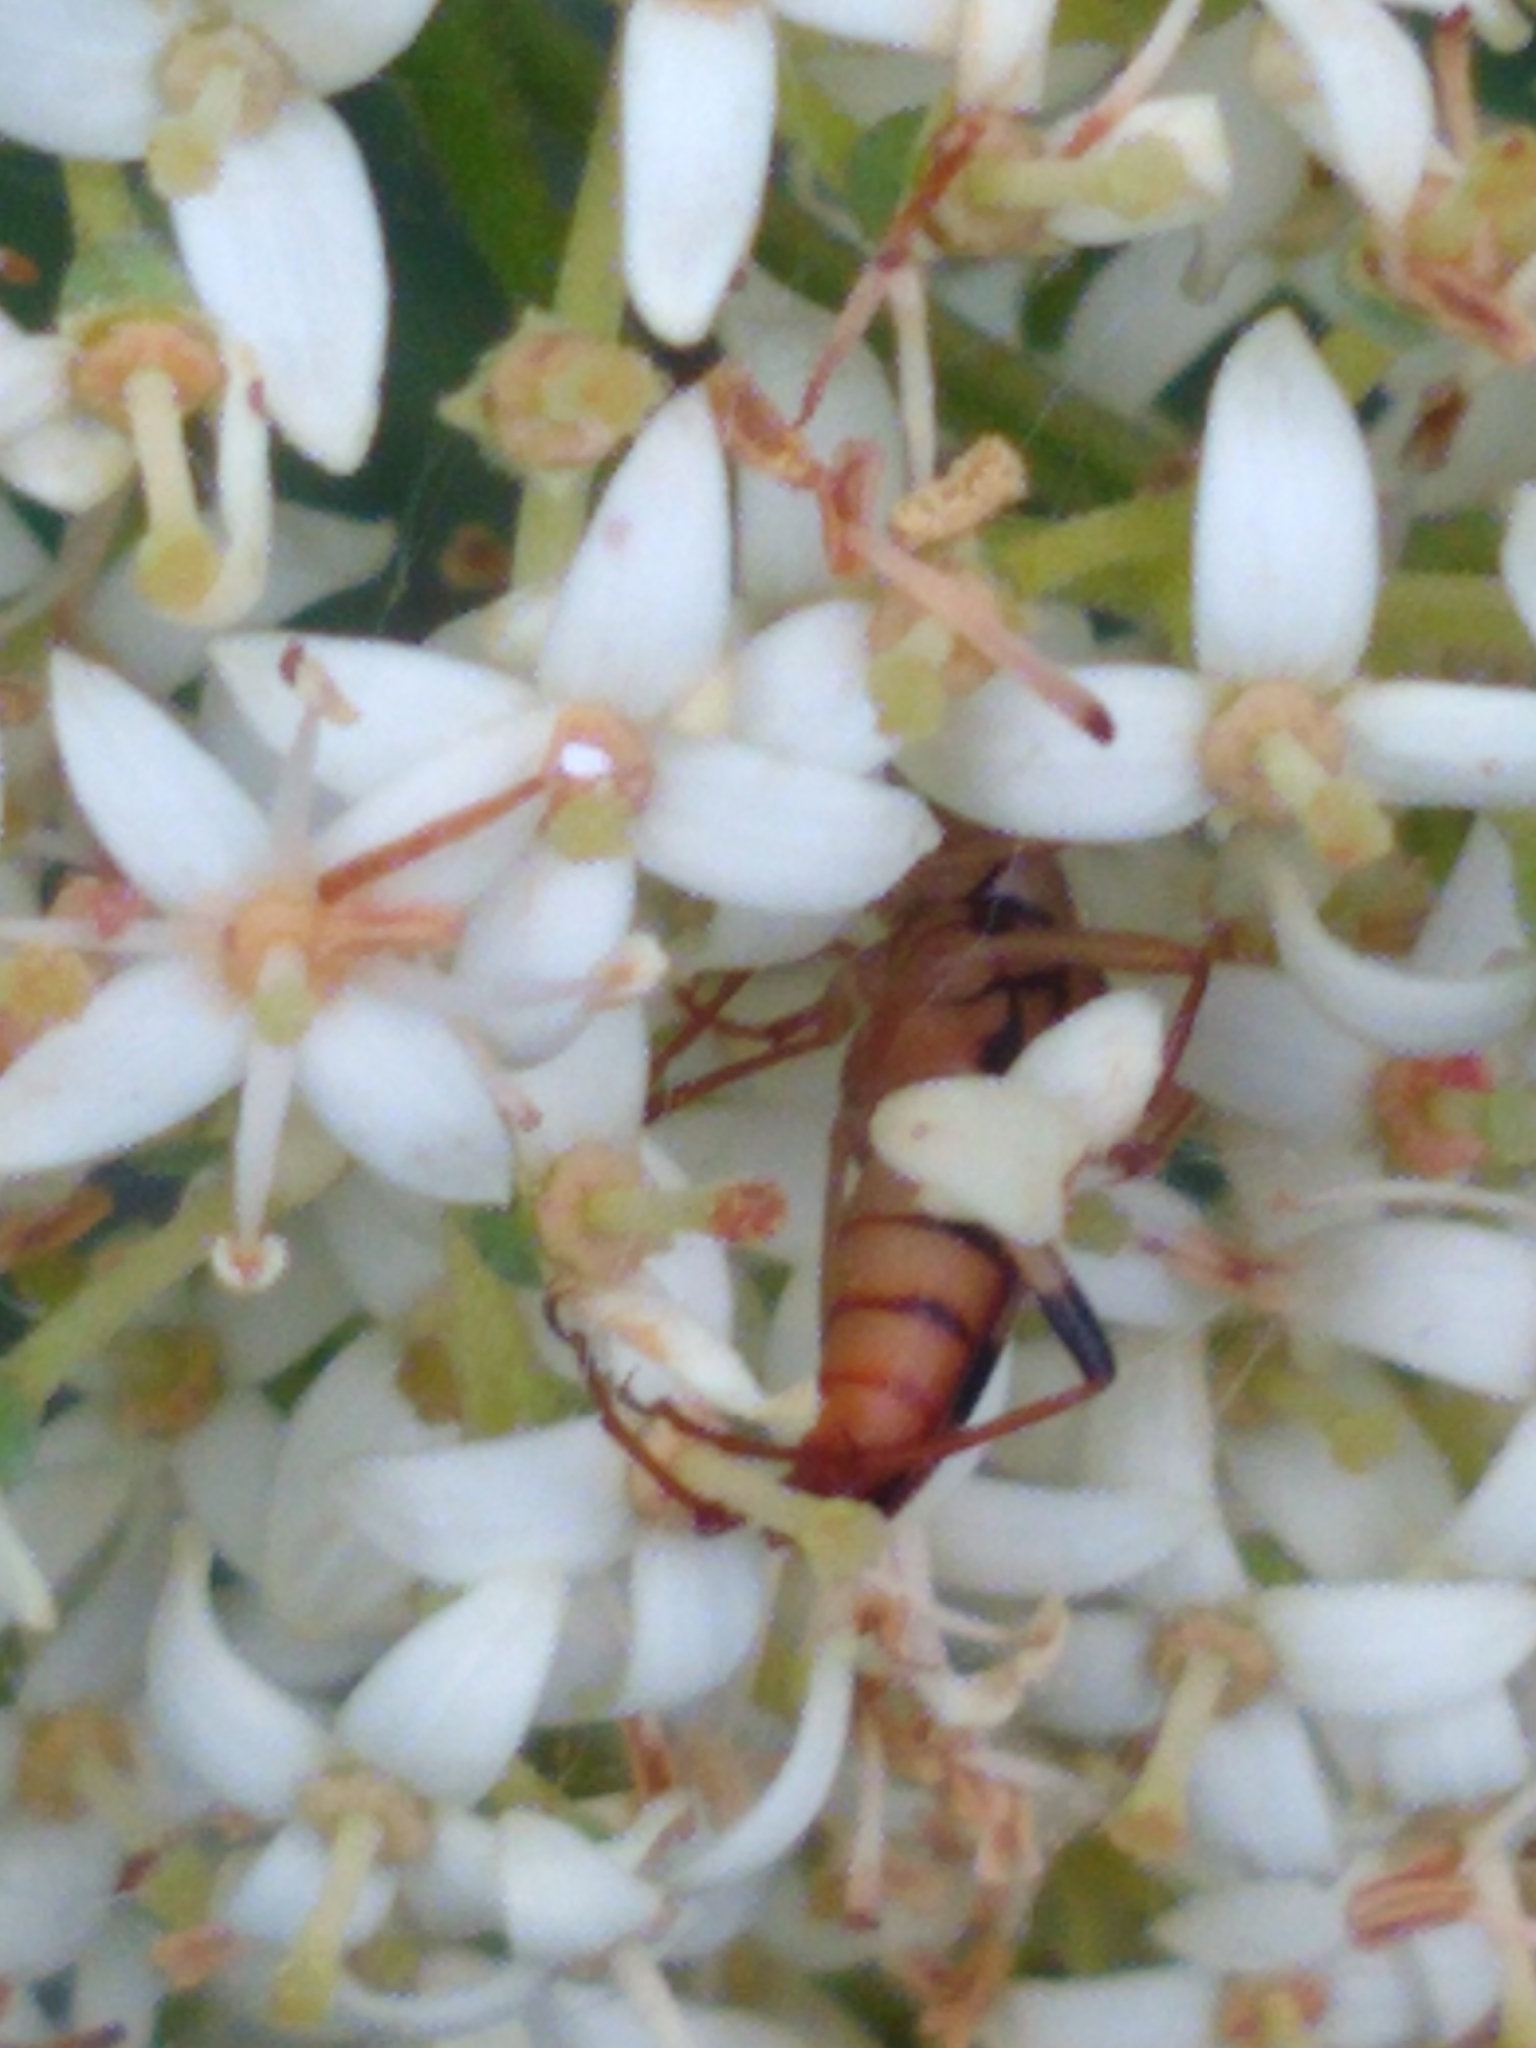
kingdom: Animalia
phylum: Arthropoda
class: Insecta
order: Coleoptera
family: Cerambycidae
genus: Strangalia
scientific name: Strangalia luteicornis
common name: Yellow-horned flower longhorn beetle
